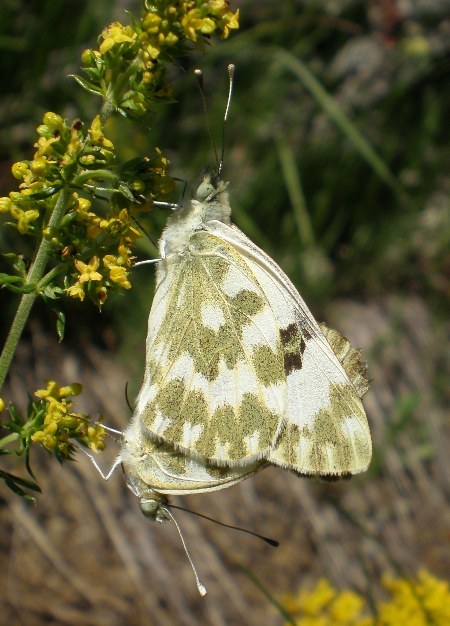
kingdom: Animalia
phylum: Arthropoda
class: Insecta
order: Lepidoptera
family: Pieridae
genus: Pontia
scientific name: Pontia daplidice
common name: Bath white
